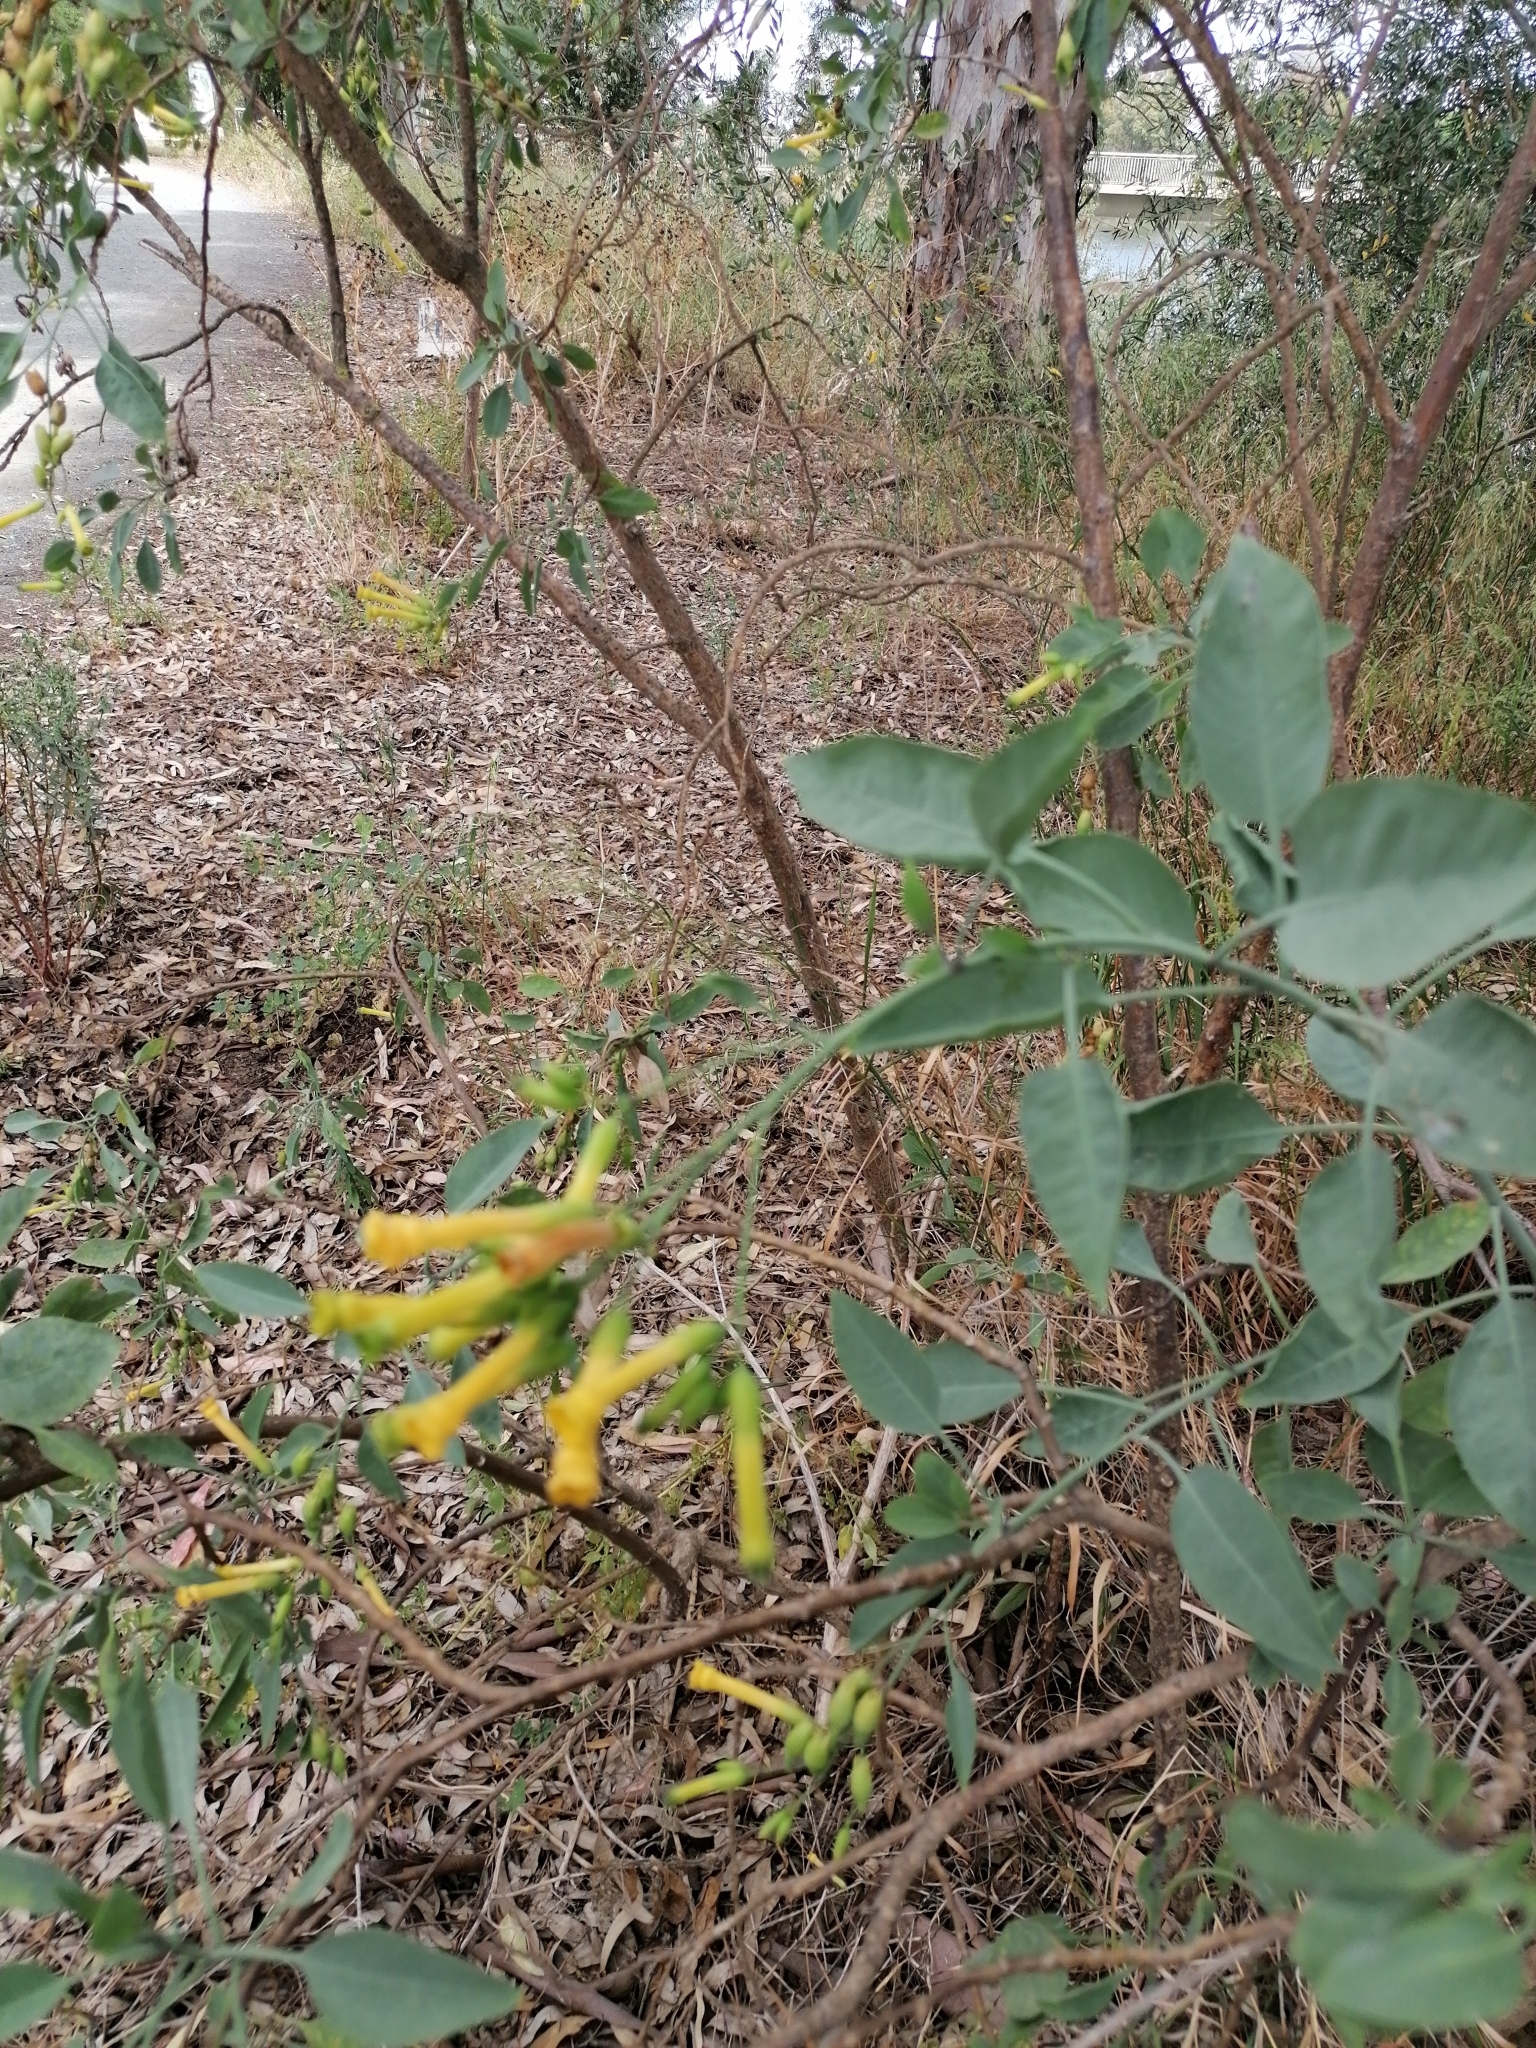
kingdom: Plantae
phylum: Tracheophyta
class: Magnoliopsida
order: Solanales
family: Solanaceae
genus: Nicotiana
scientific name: Nicotiana glauca
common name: Tree tobacco
